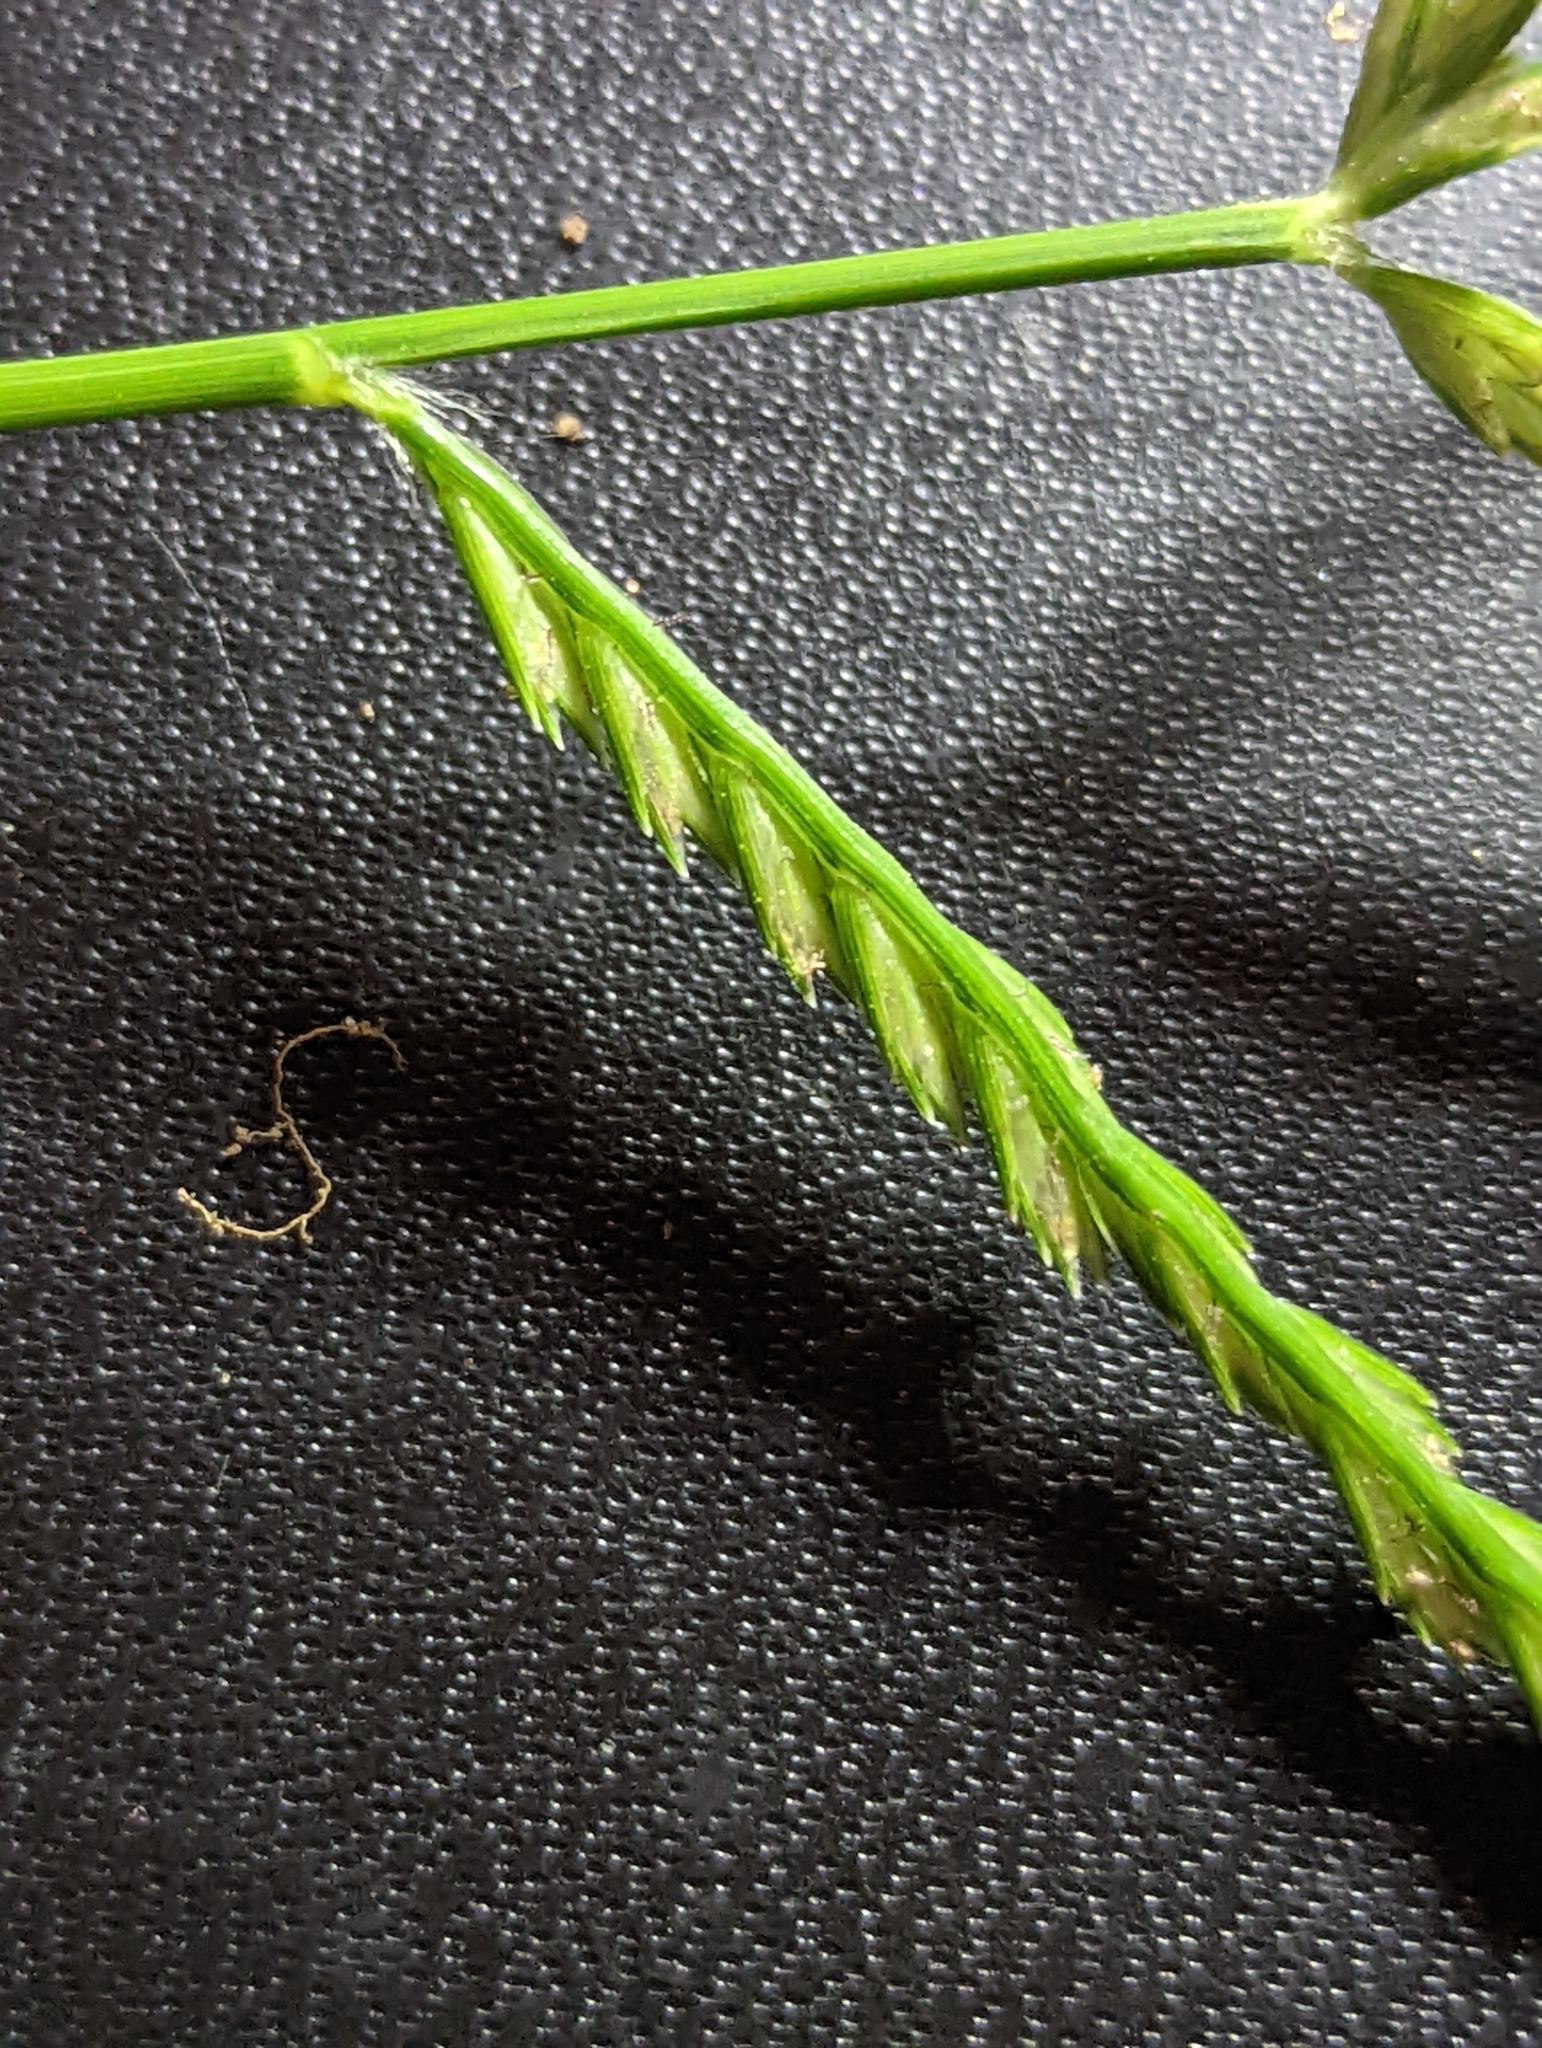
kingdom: Plantae
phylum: Tracheophyta
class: Liliopsida
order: Poales
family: Poaceae
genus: Eleusine
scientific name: Eleusine indica
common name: Yard-grass
